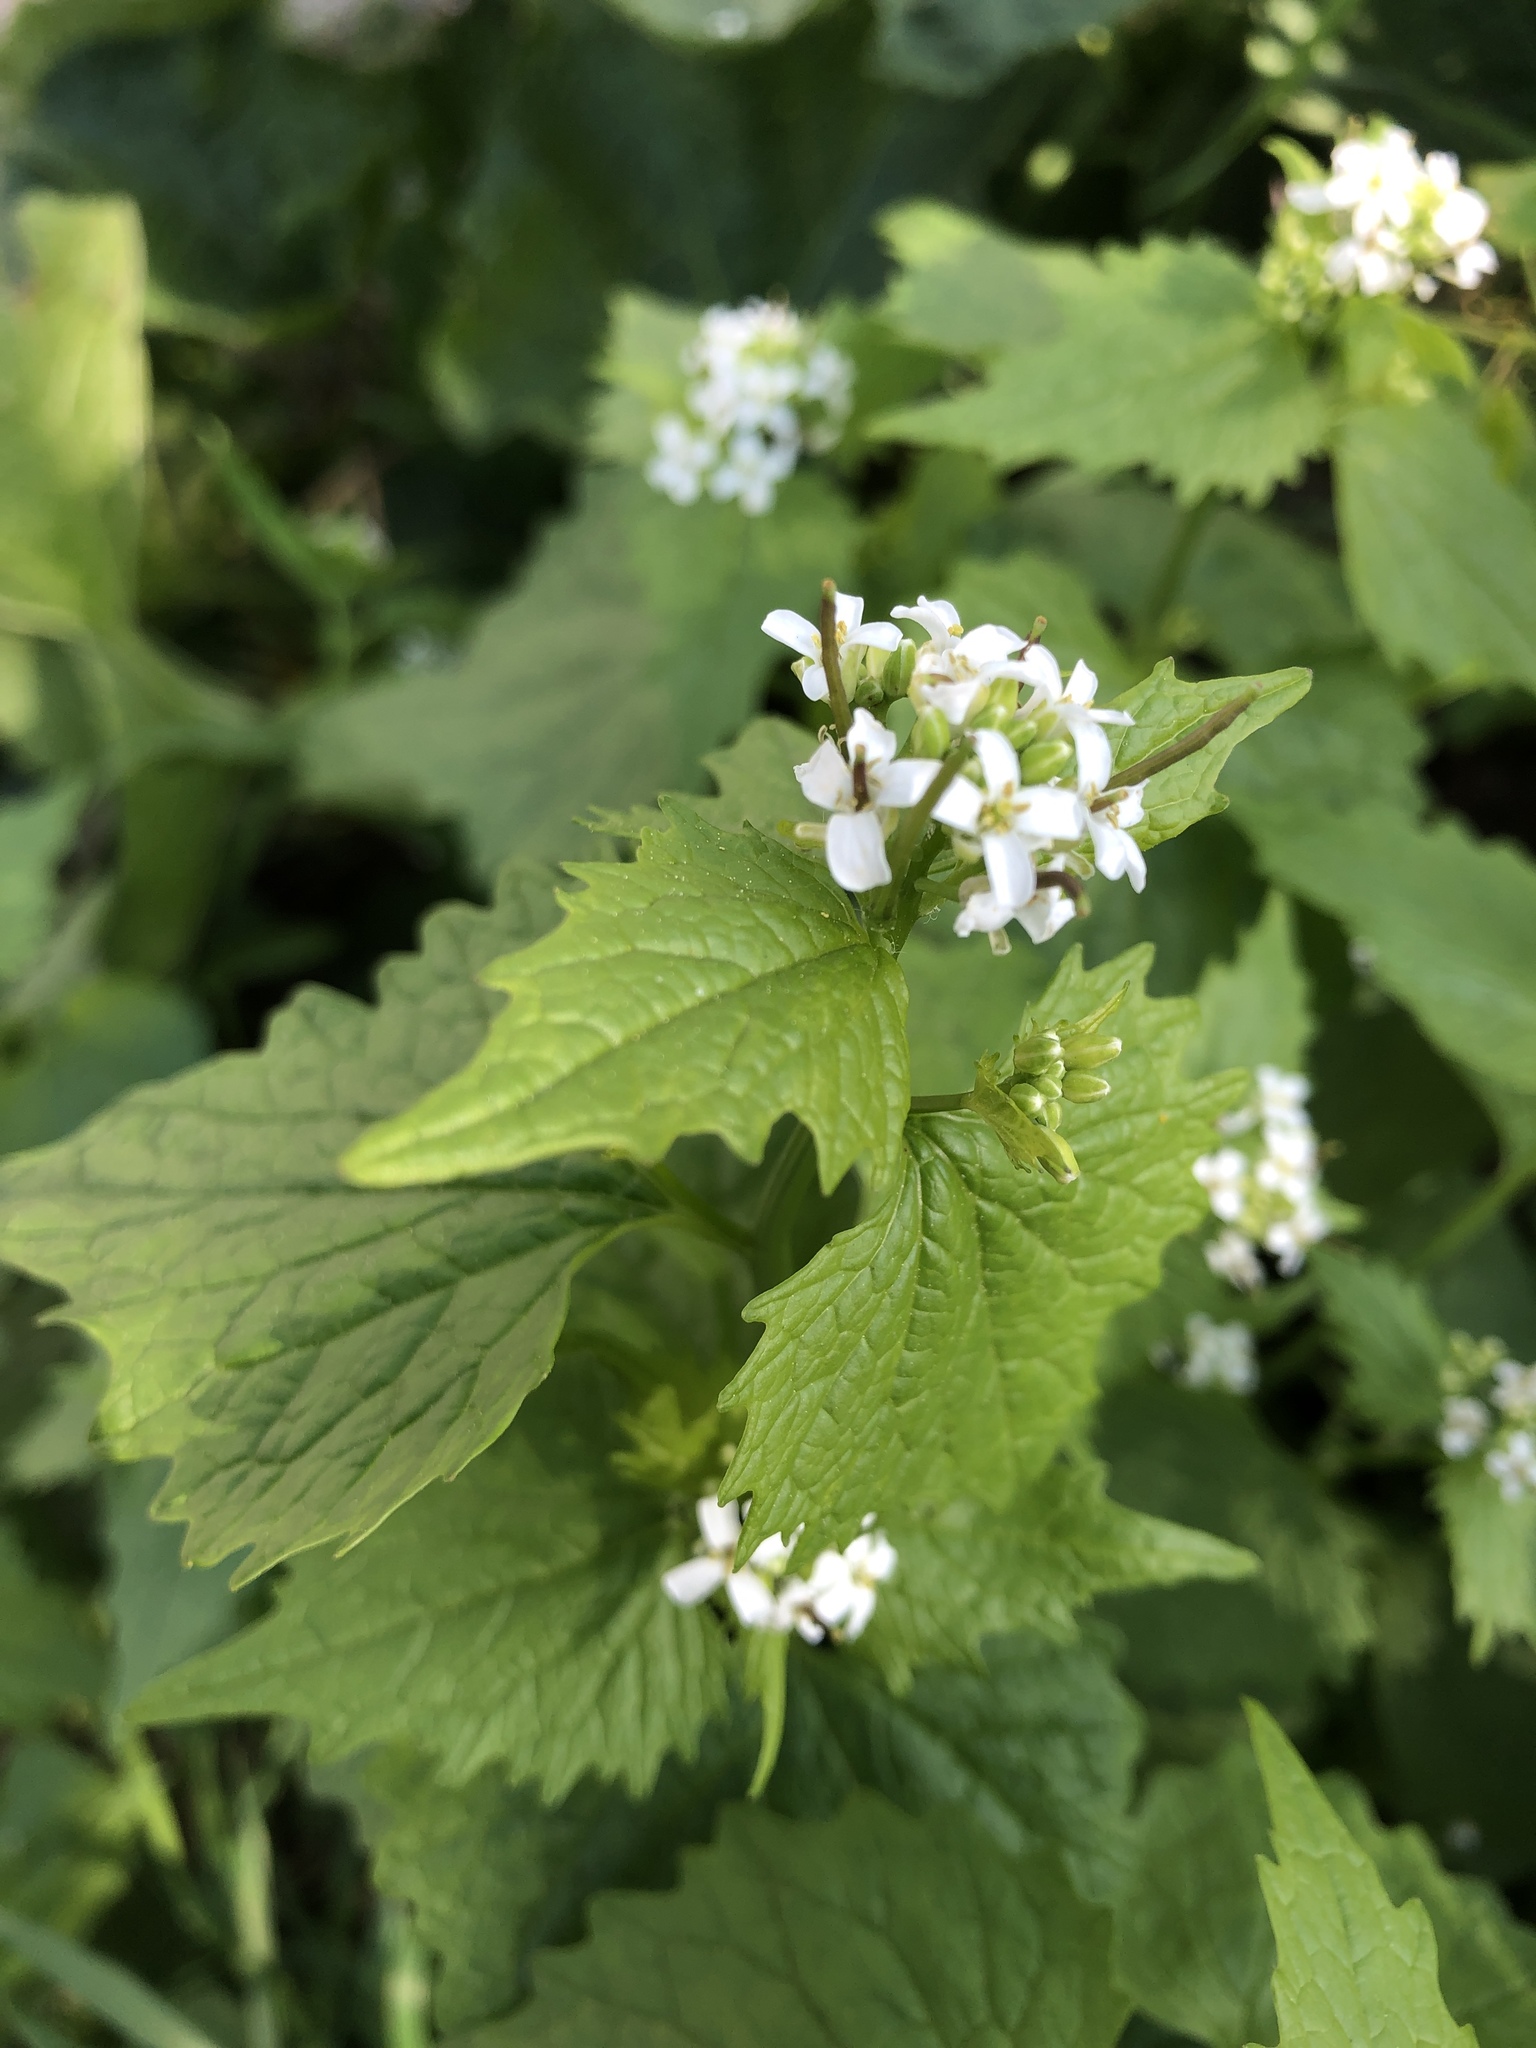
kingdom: Plantae
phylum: Tracheophyta
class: Magnoliopsida
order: Brassicales
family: Brassicaceae
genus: Alliaria
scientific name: Alliaria petiolata
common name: Garlic mustard
